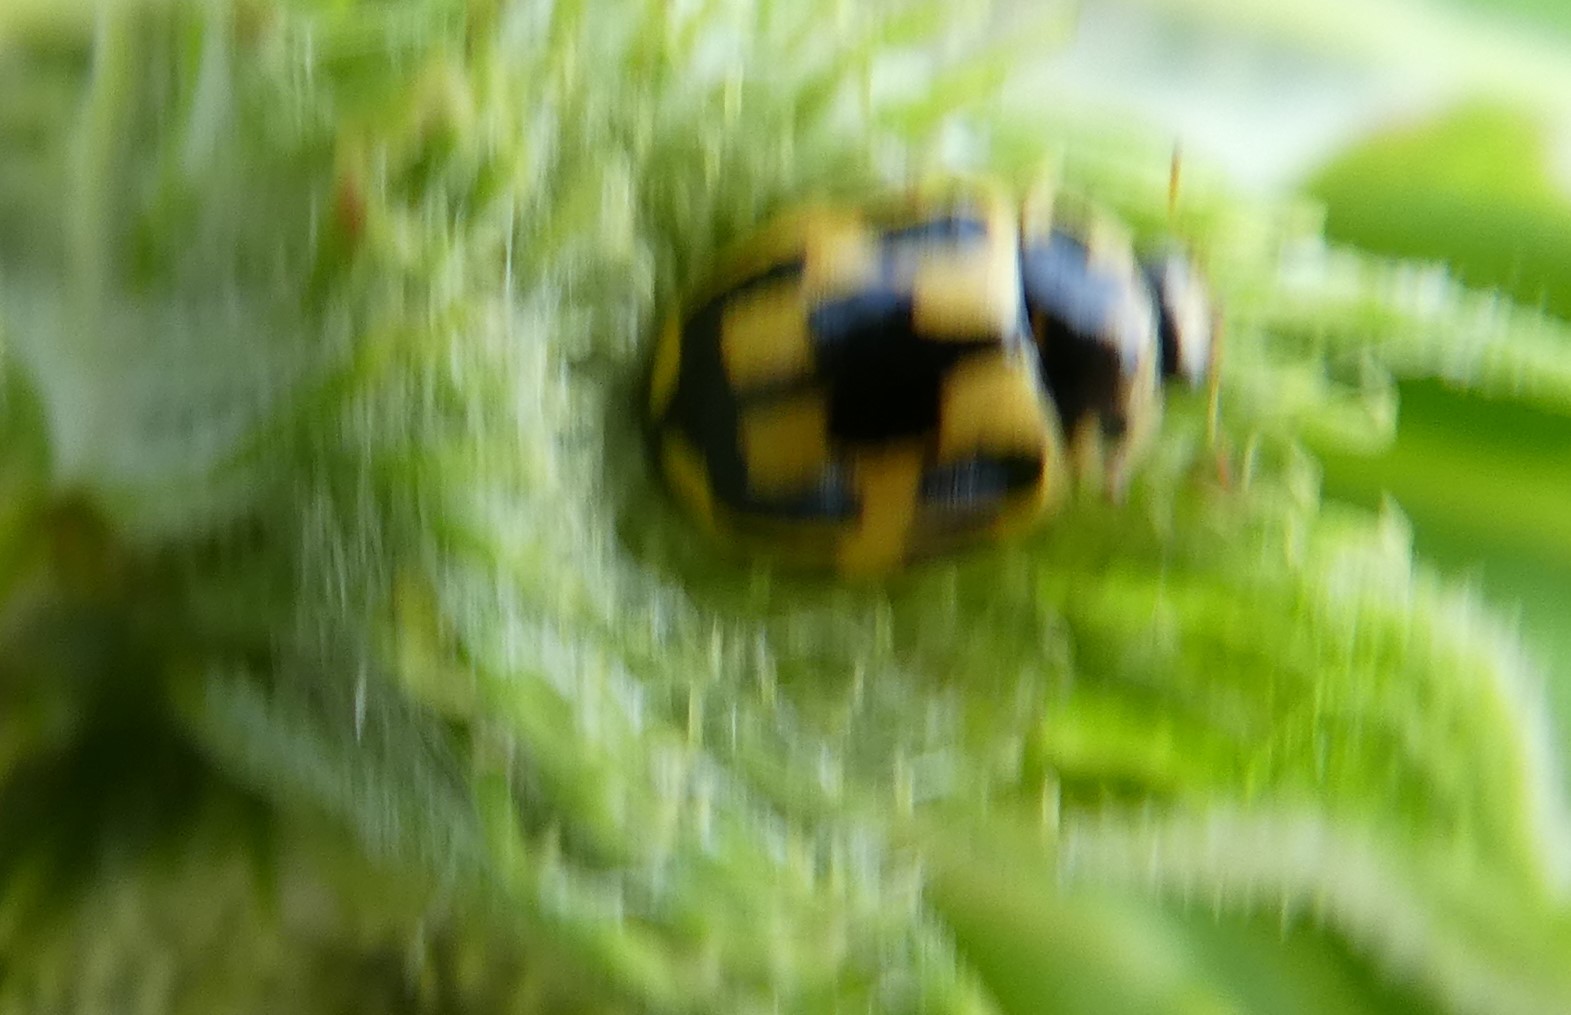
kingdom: Animalia
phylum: Arthropoda
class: Insecta
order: Coleoptera
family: Coccinellidae
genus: Propylaea
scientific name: Propylaea quatuordecimpunctata
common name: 14-spotted ladybird beetle
